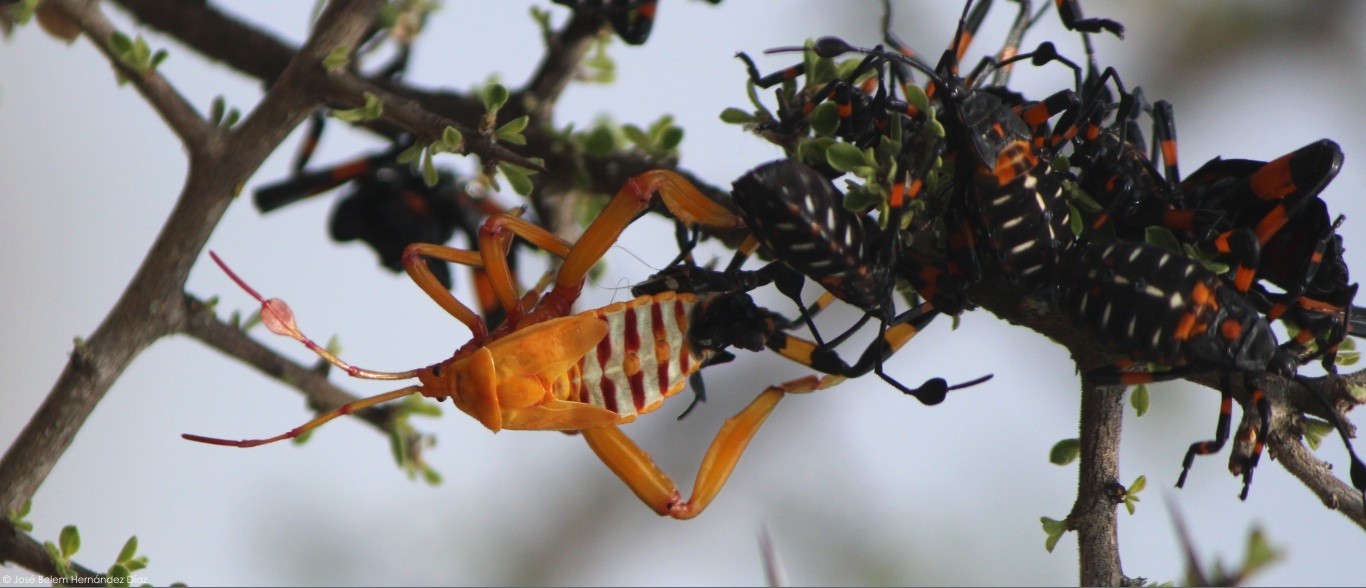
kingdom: Animalia
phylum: Arthropoda
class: Insecta
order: Hemiptera
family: Coreidae
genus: Thasus
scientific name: Thasus
